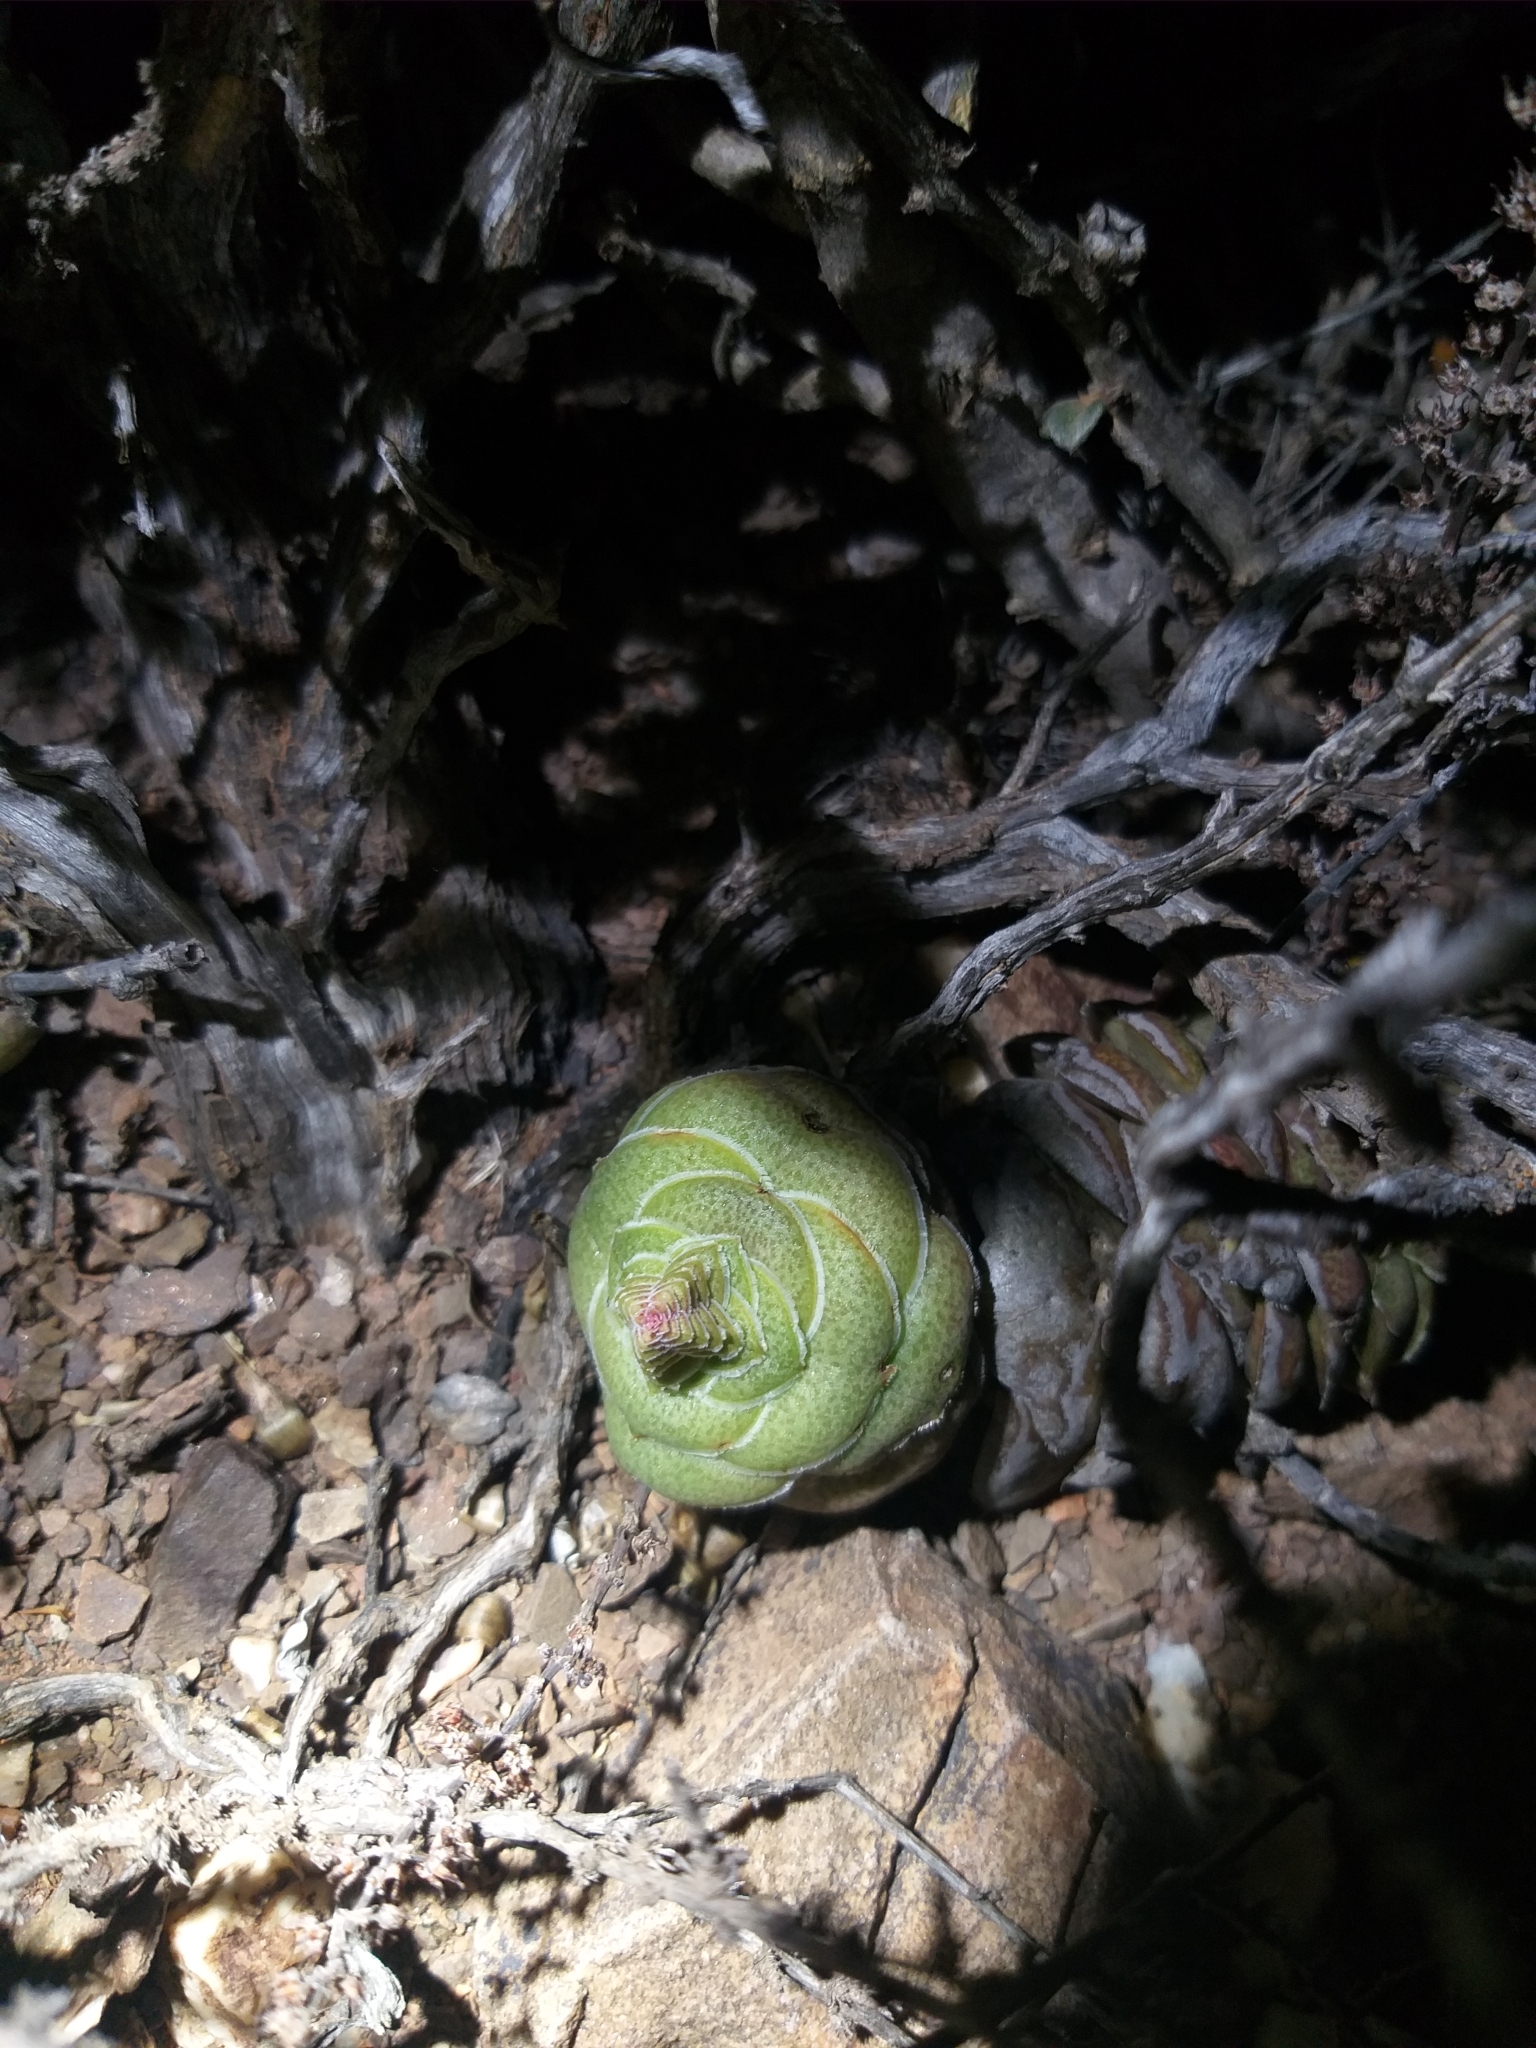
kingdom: Plantae
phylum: Tracheophyta
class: Magnoliopsida
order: Saxifragales
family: Crassulaceae
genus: Crassula
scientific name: Crassula hemisphaerica
